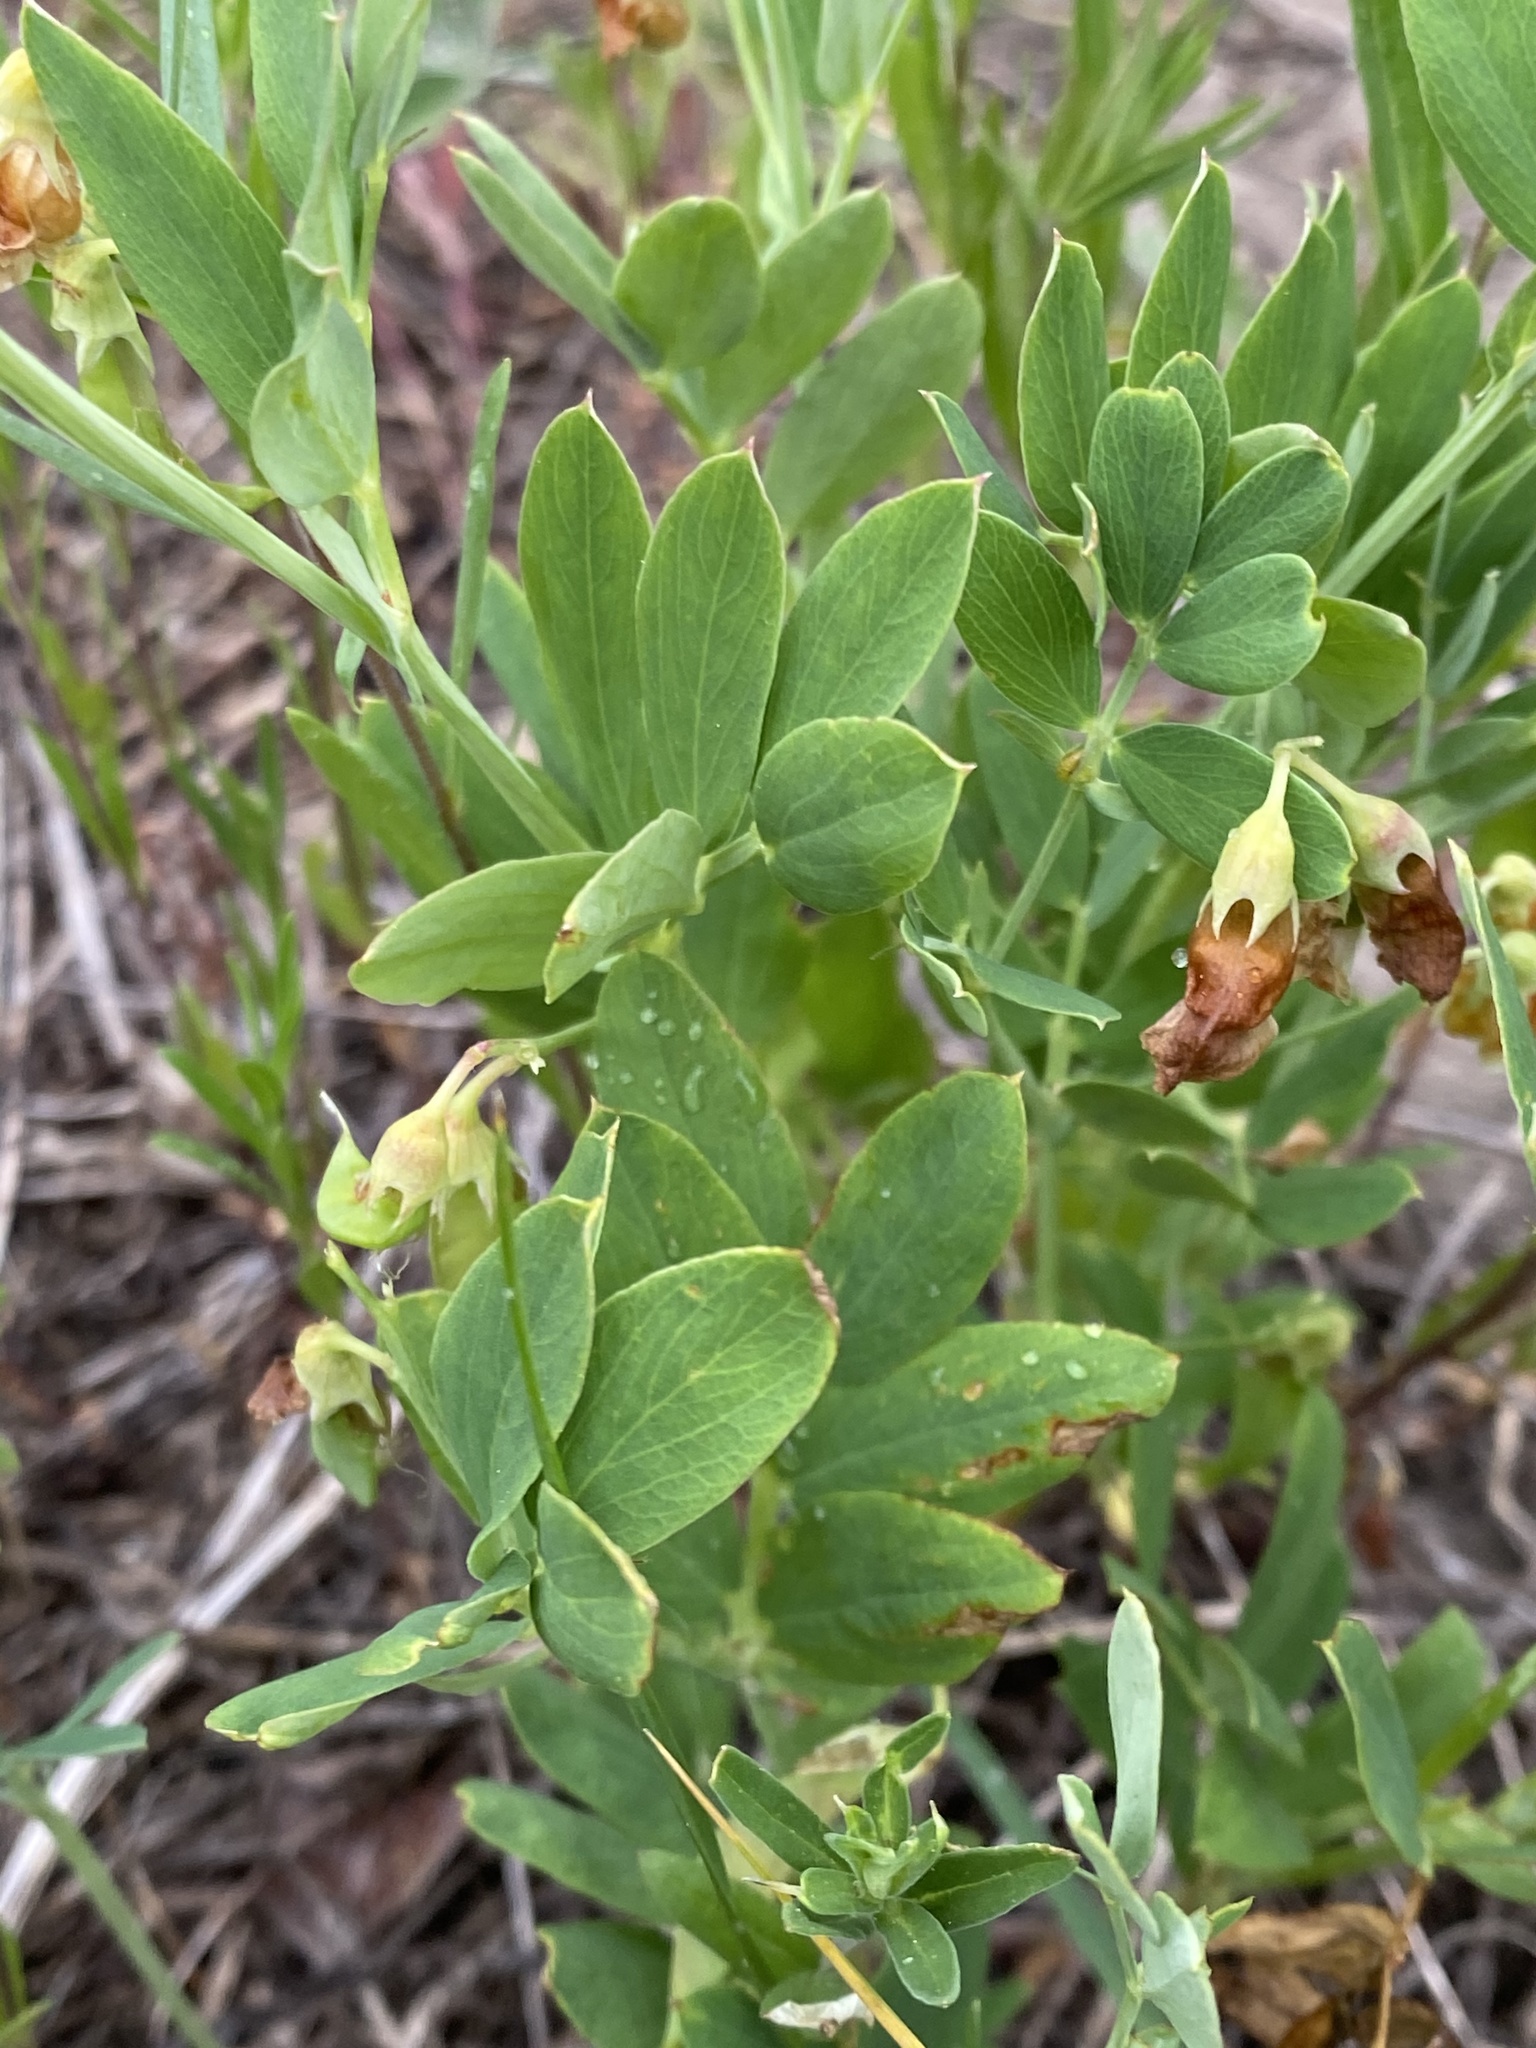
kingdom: Plantae
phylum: Tracheophyta
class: Magnoliopsida
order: Fabales
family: Fabaceae
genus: Lathyrus
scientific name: Lathyrus lanszwertii
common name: Lanszwert's vetchling
